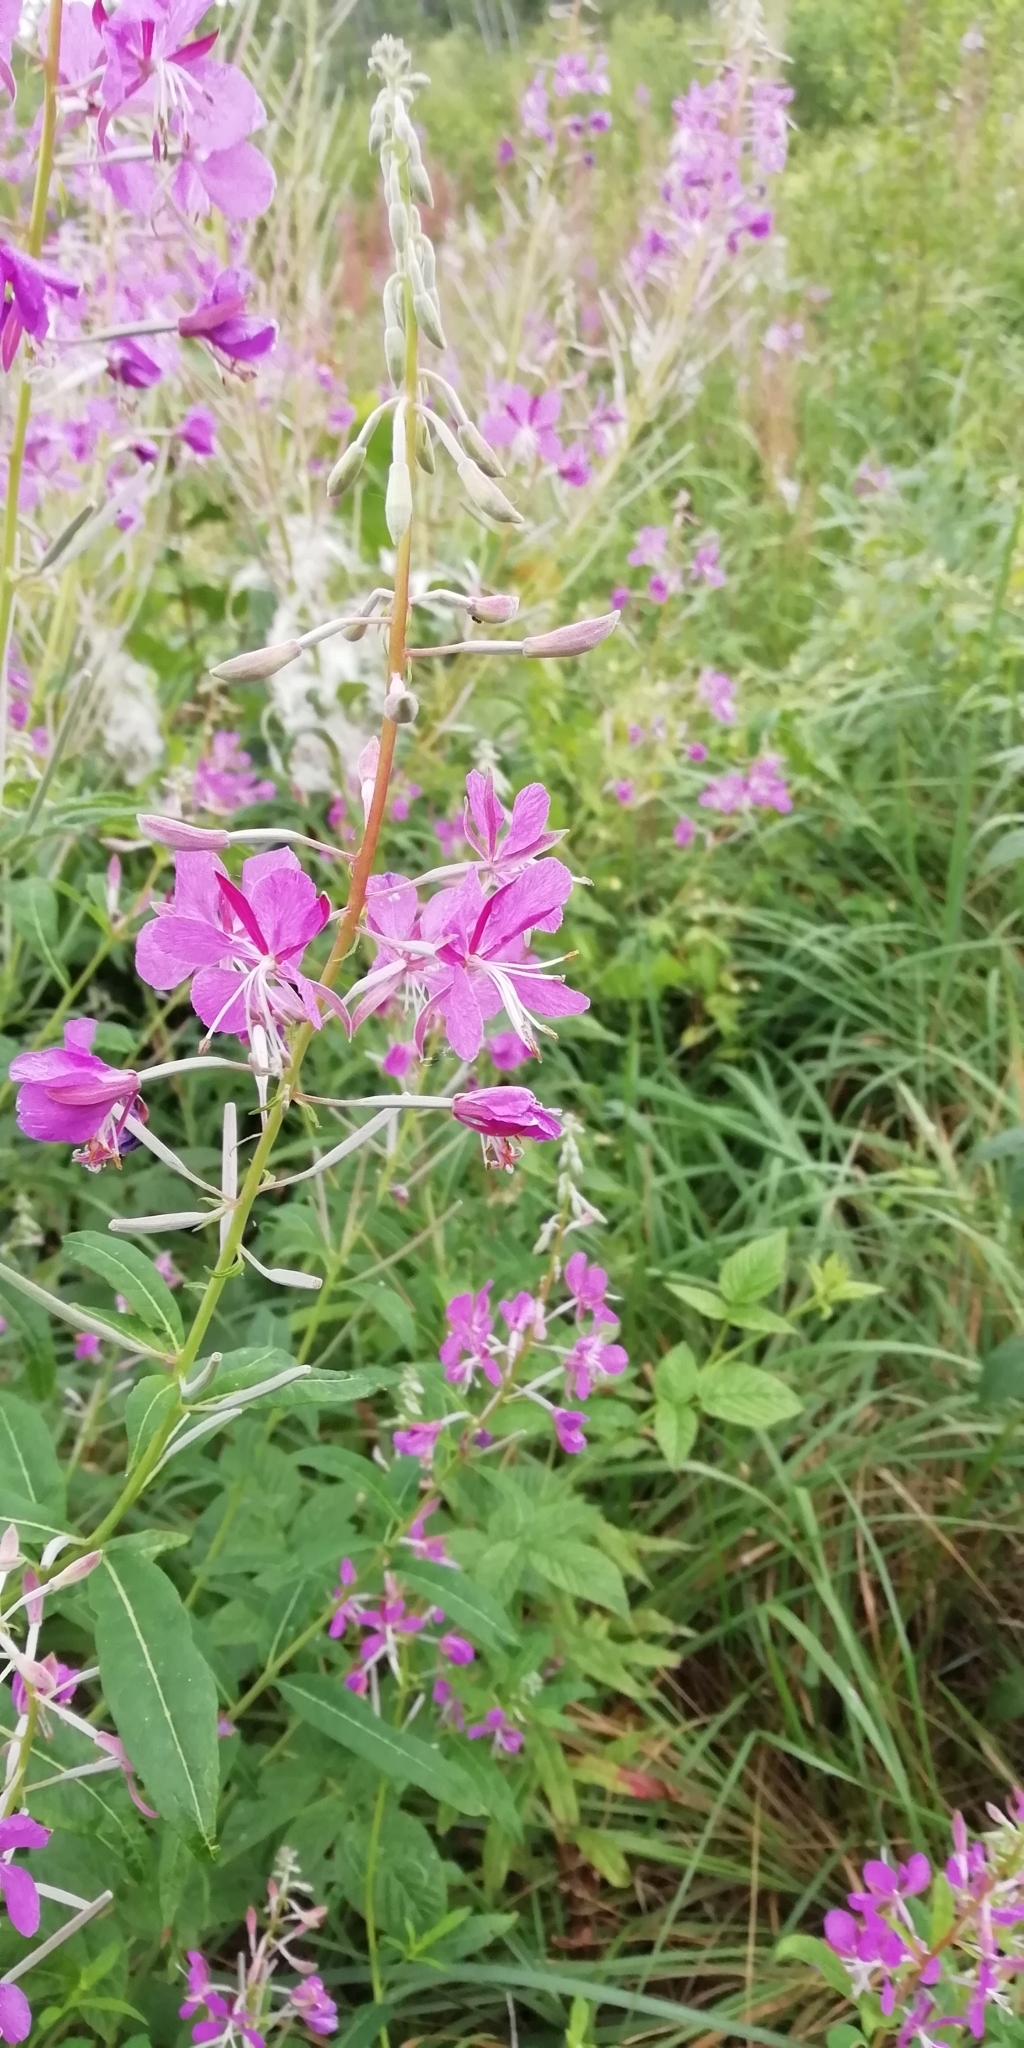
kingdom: Plantae
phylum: Tracheophyta
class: Magnoliopsida
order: Myrtales
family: Onagraceae
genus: Chamaenerion
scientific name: Chamaenerion angustifolium
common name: Fireweed
